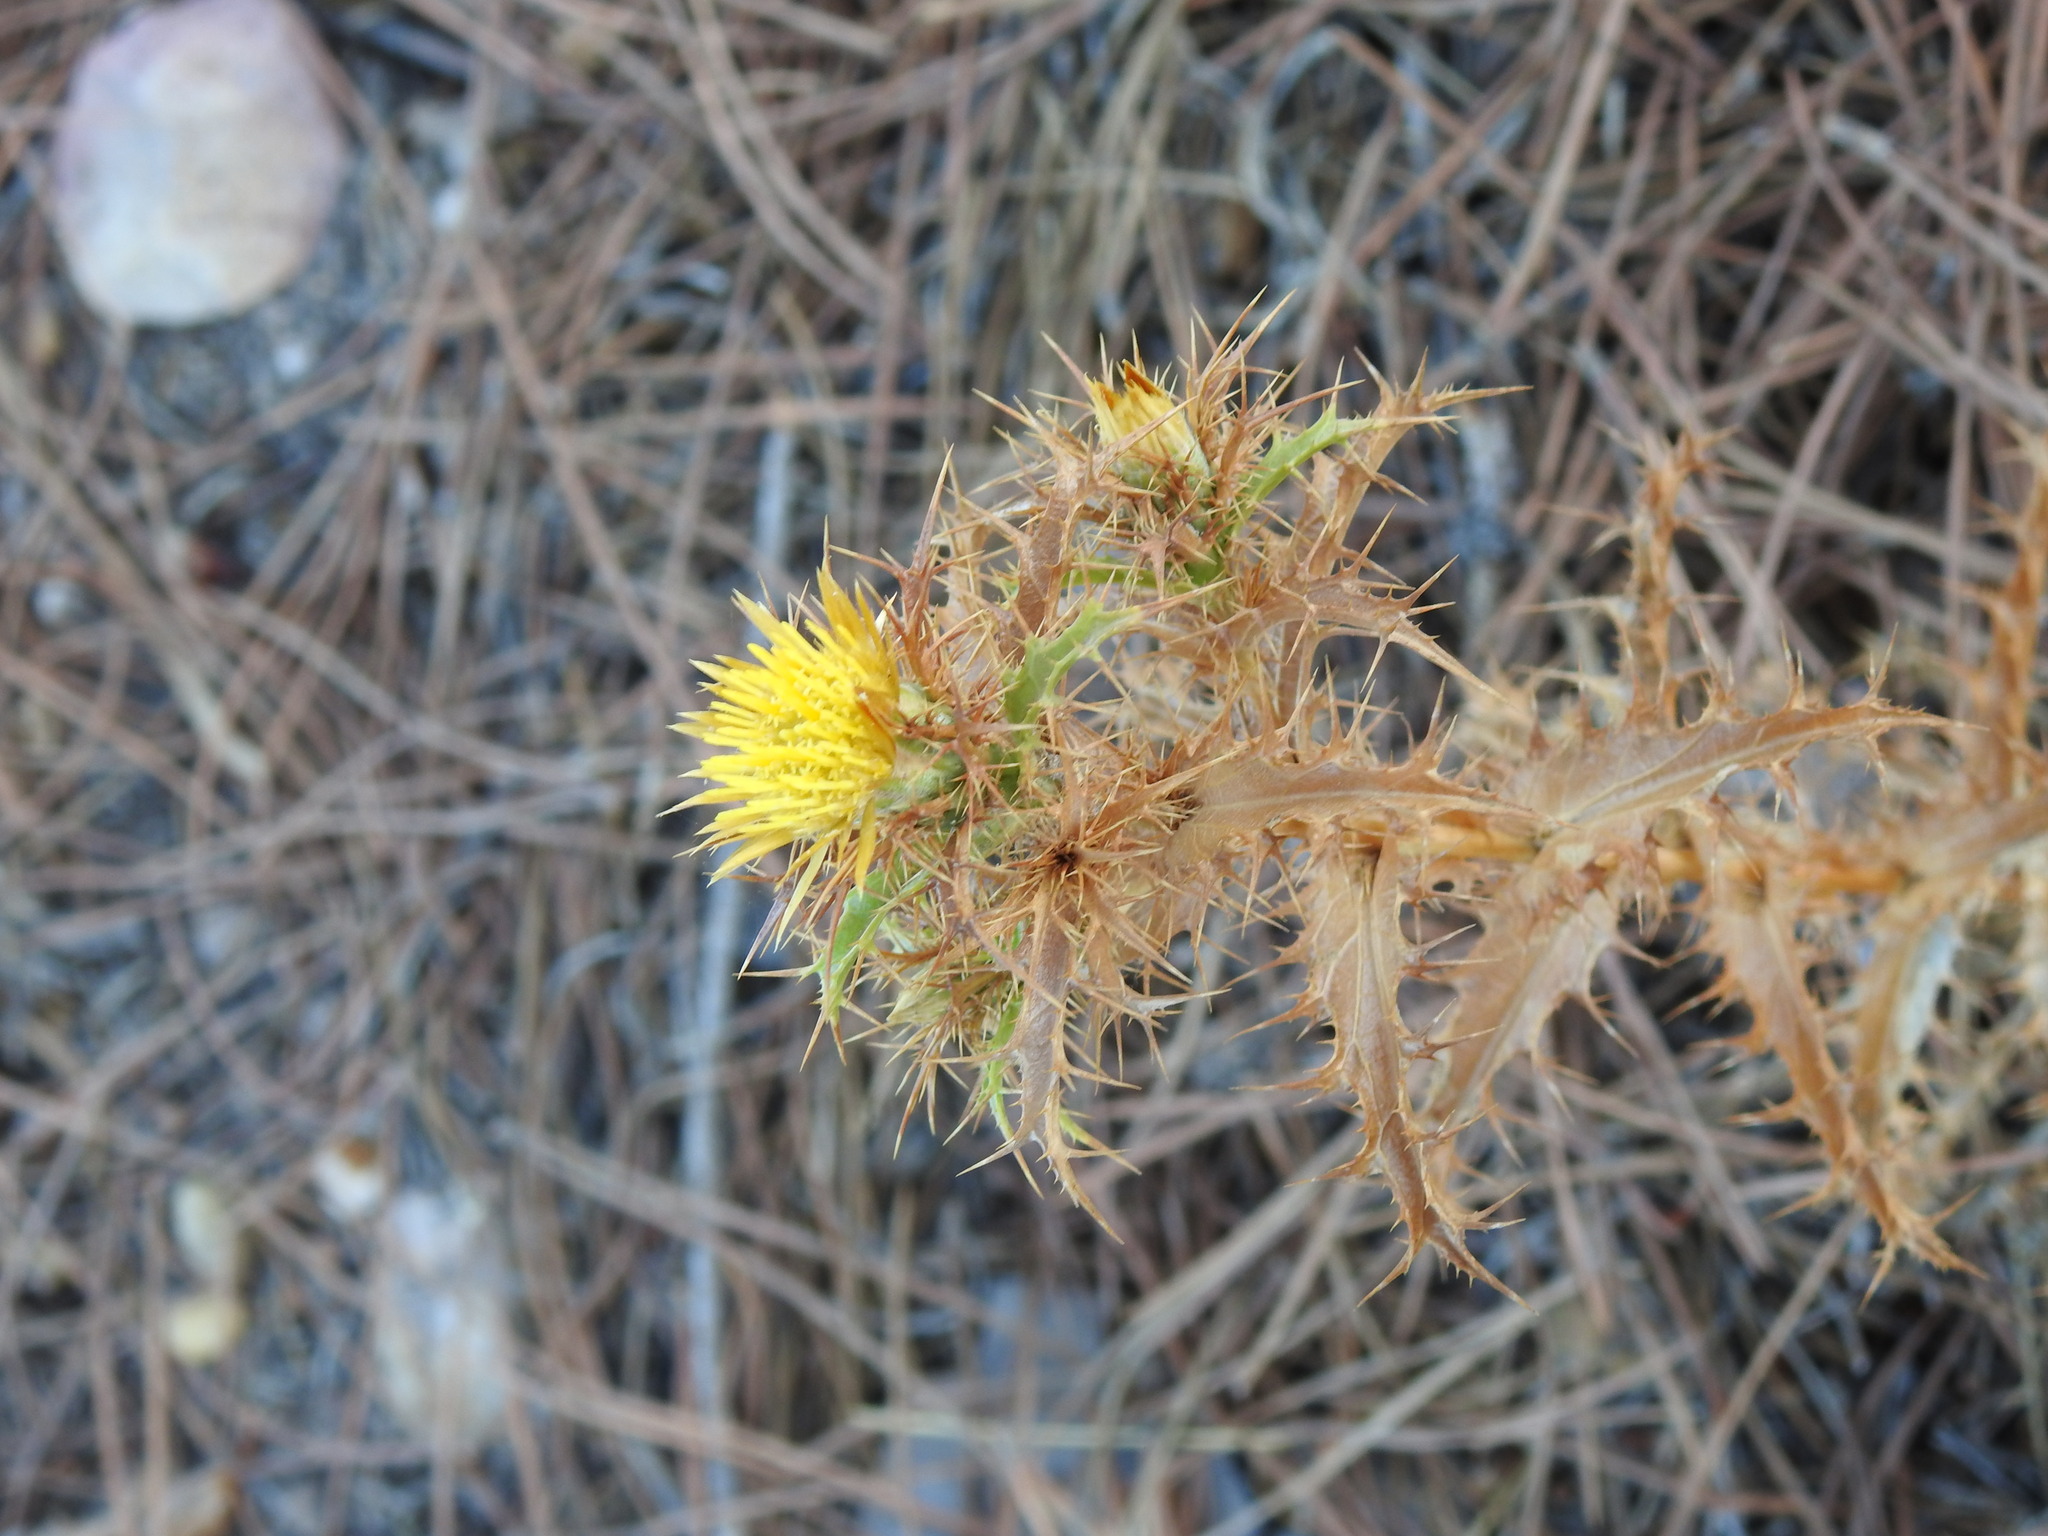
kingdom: Plantae
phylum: Tracheophyta
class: Magnoliopsida
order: Asterales
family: Asteraceae
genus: Carlina
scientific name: Carlina hispanica
